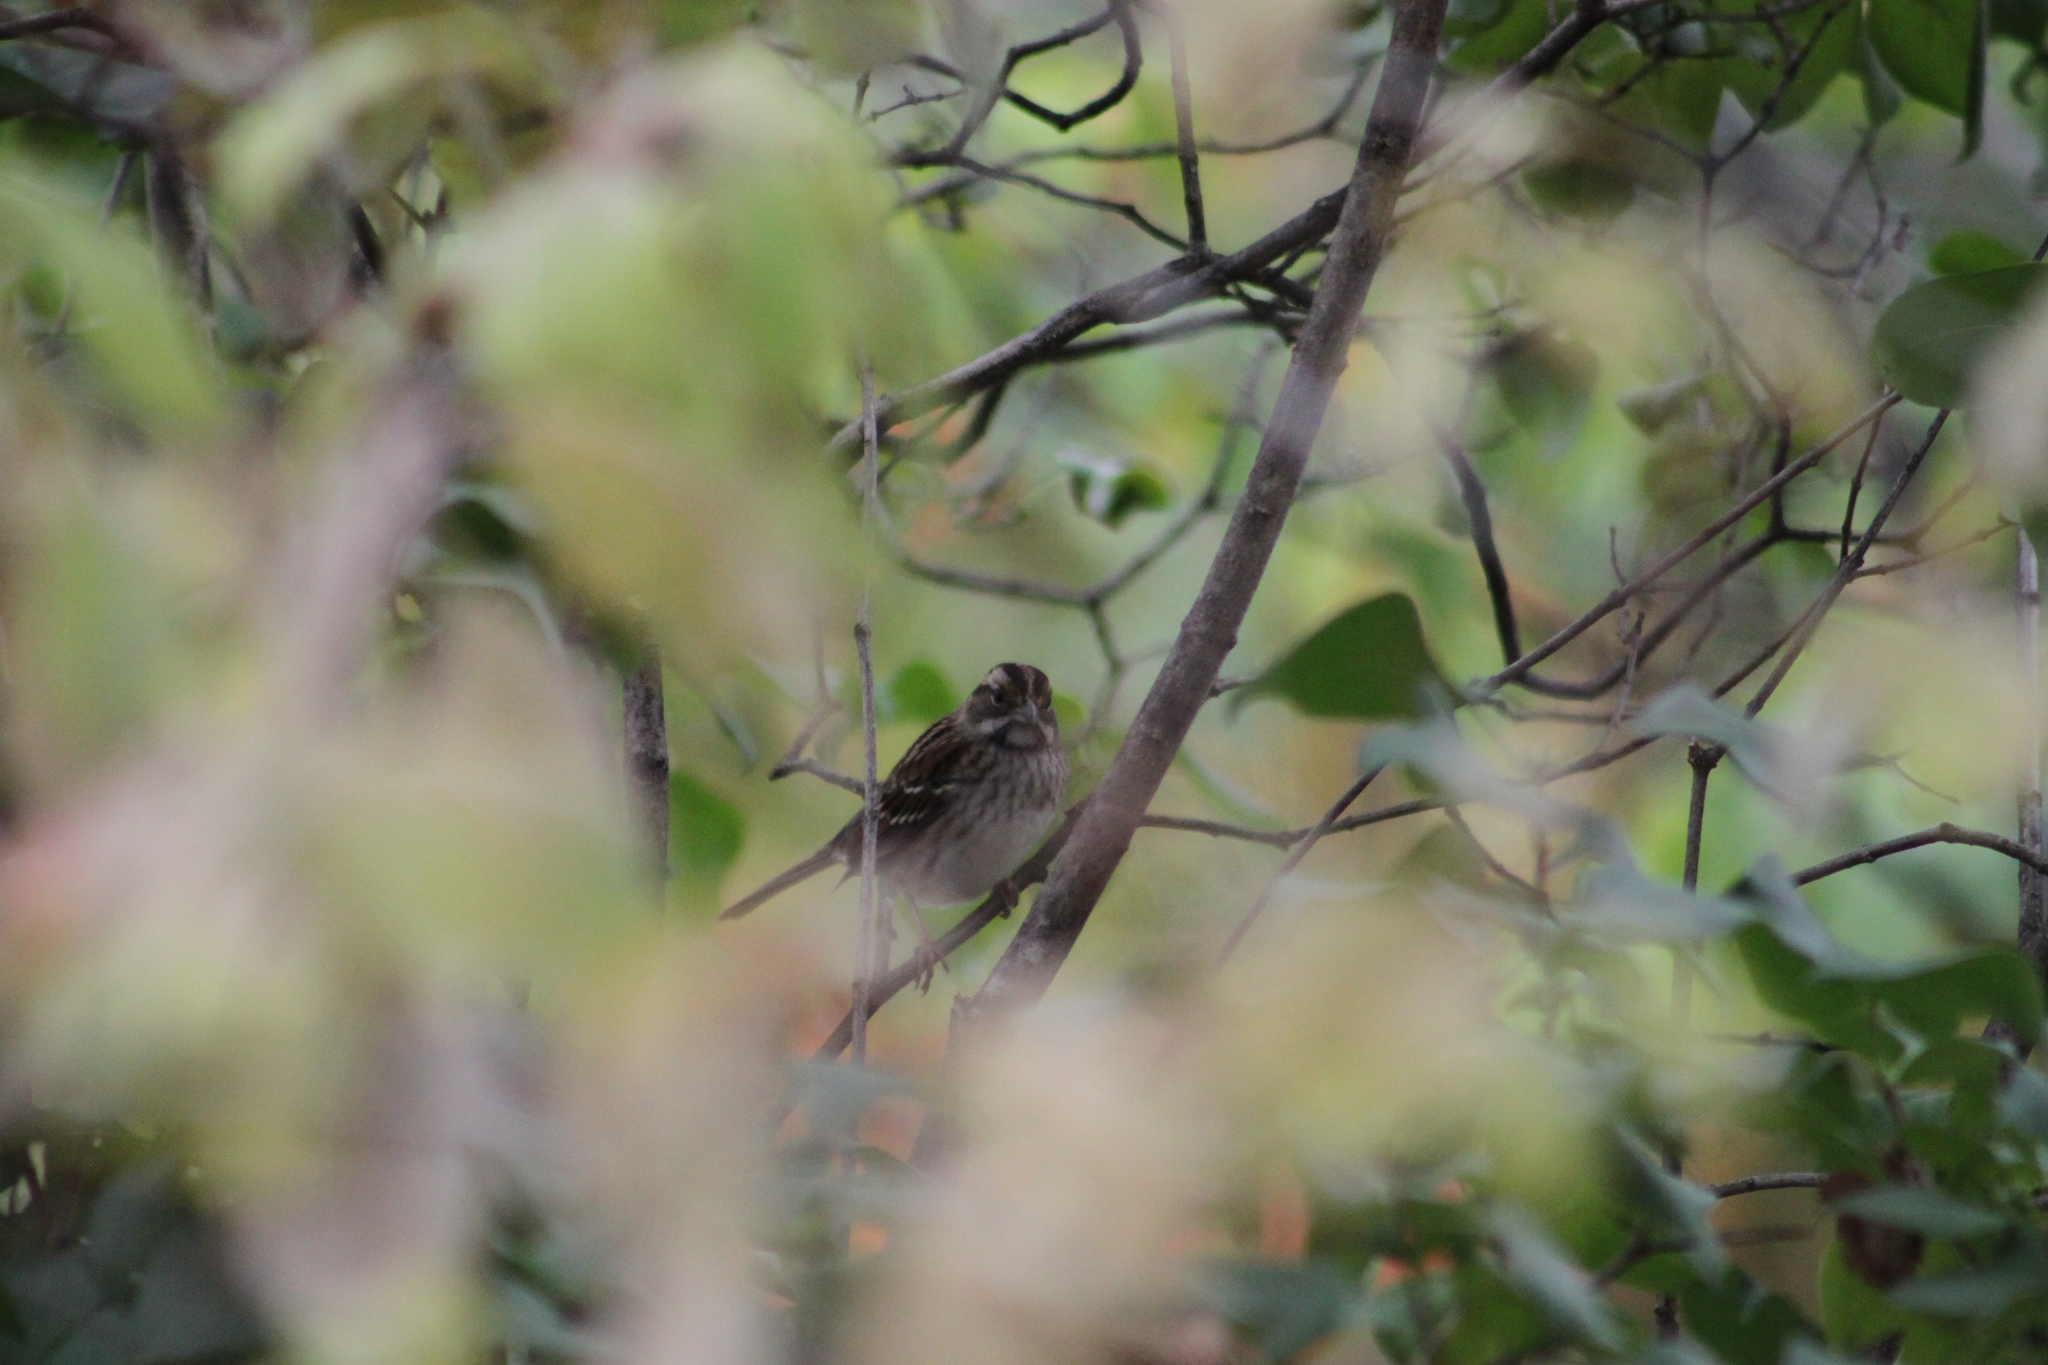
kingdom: Animalia
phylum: Chordata
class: Aves
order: Passeriformes
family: Passerellidae
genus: Zonotrichia
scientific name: Zonotrichia albicollis
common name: White-throated sparrow
